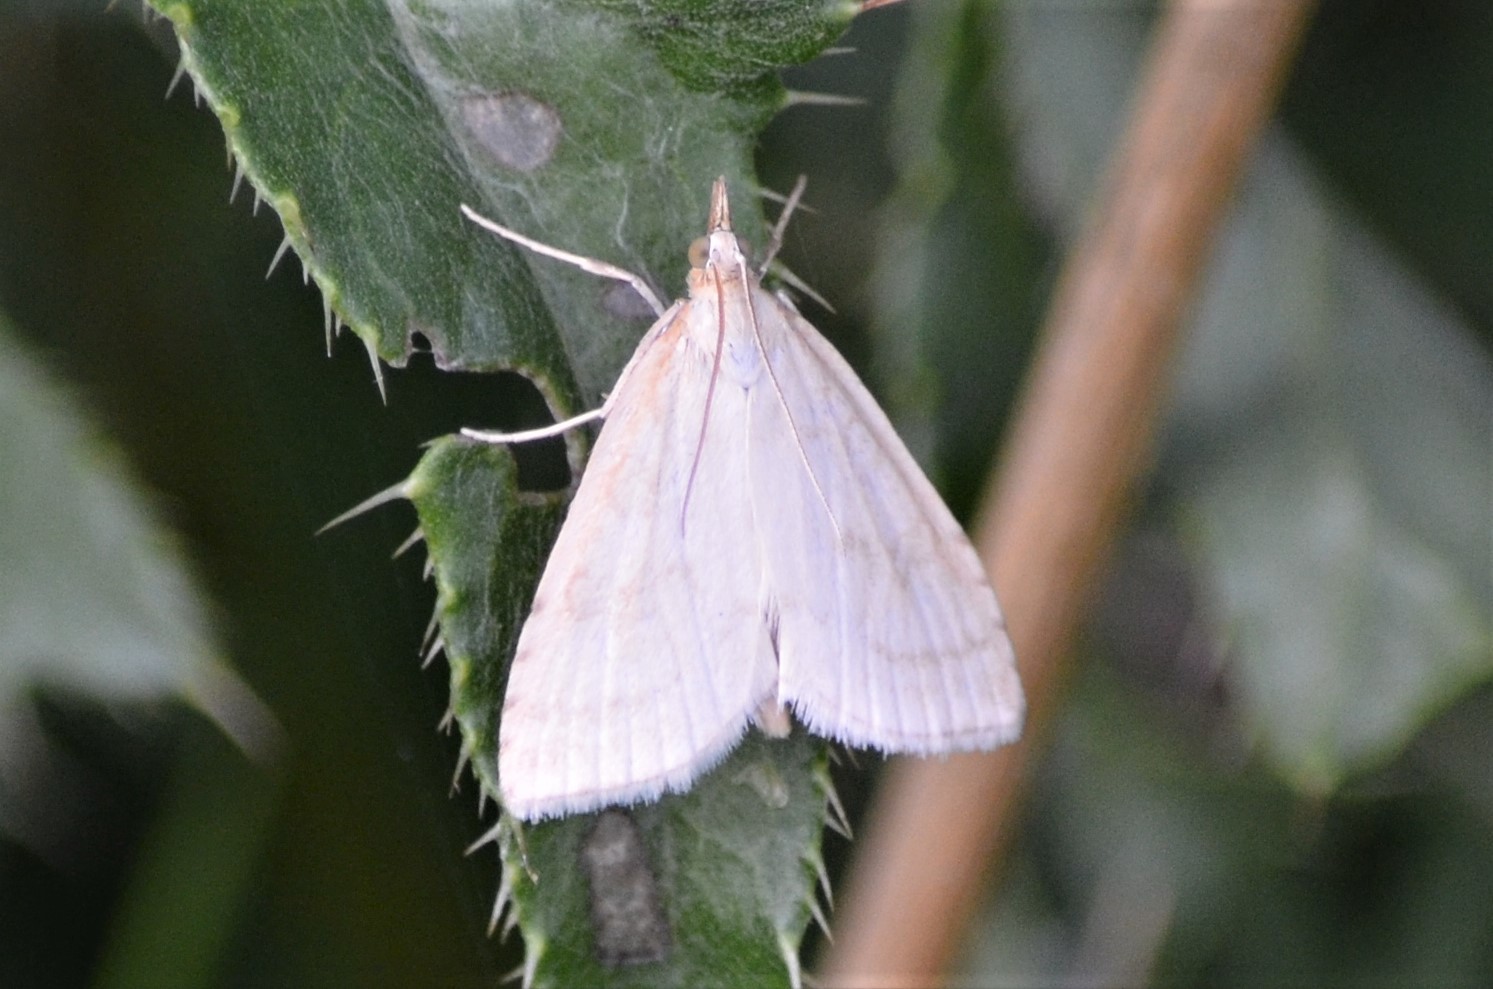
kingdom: Animalia
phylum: Arthropoda
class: Insecta
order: Lepidoptera
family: Crambidae
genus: Udea
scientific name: Udea lutealis
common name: Pale straw pearl
